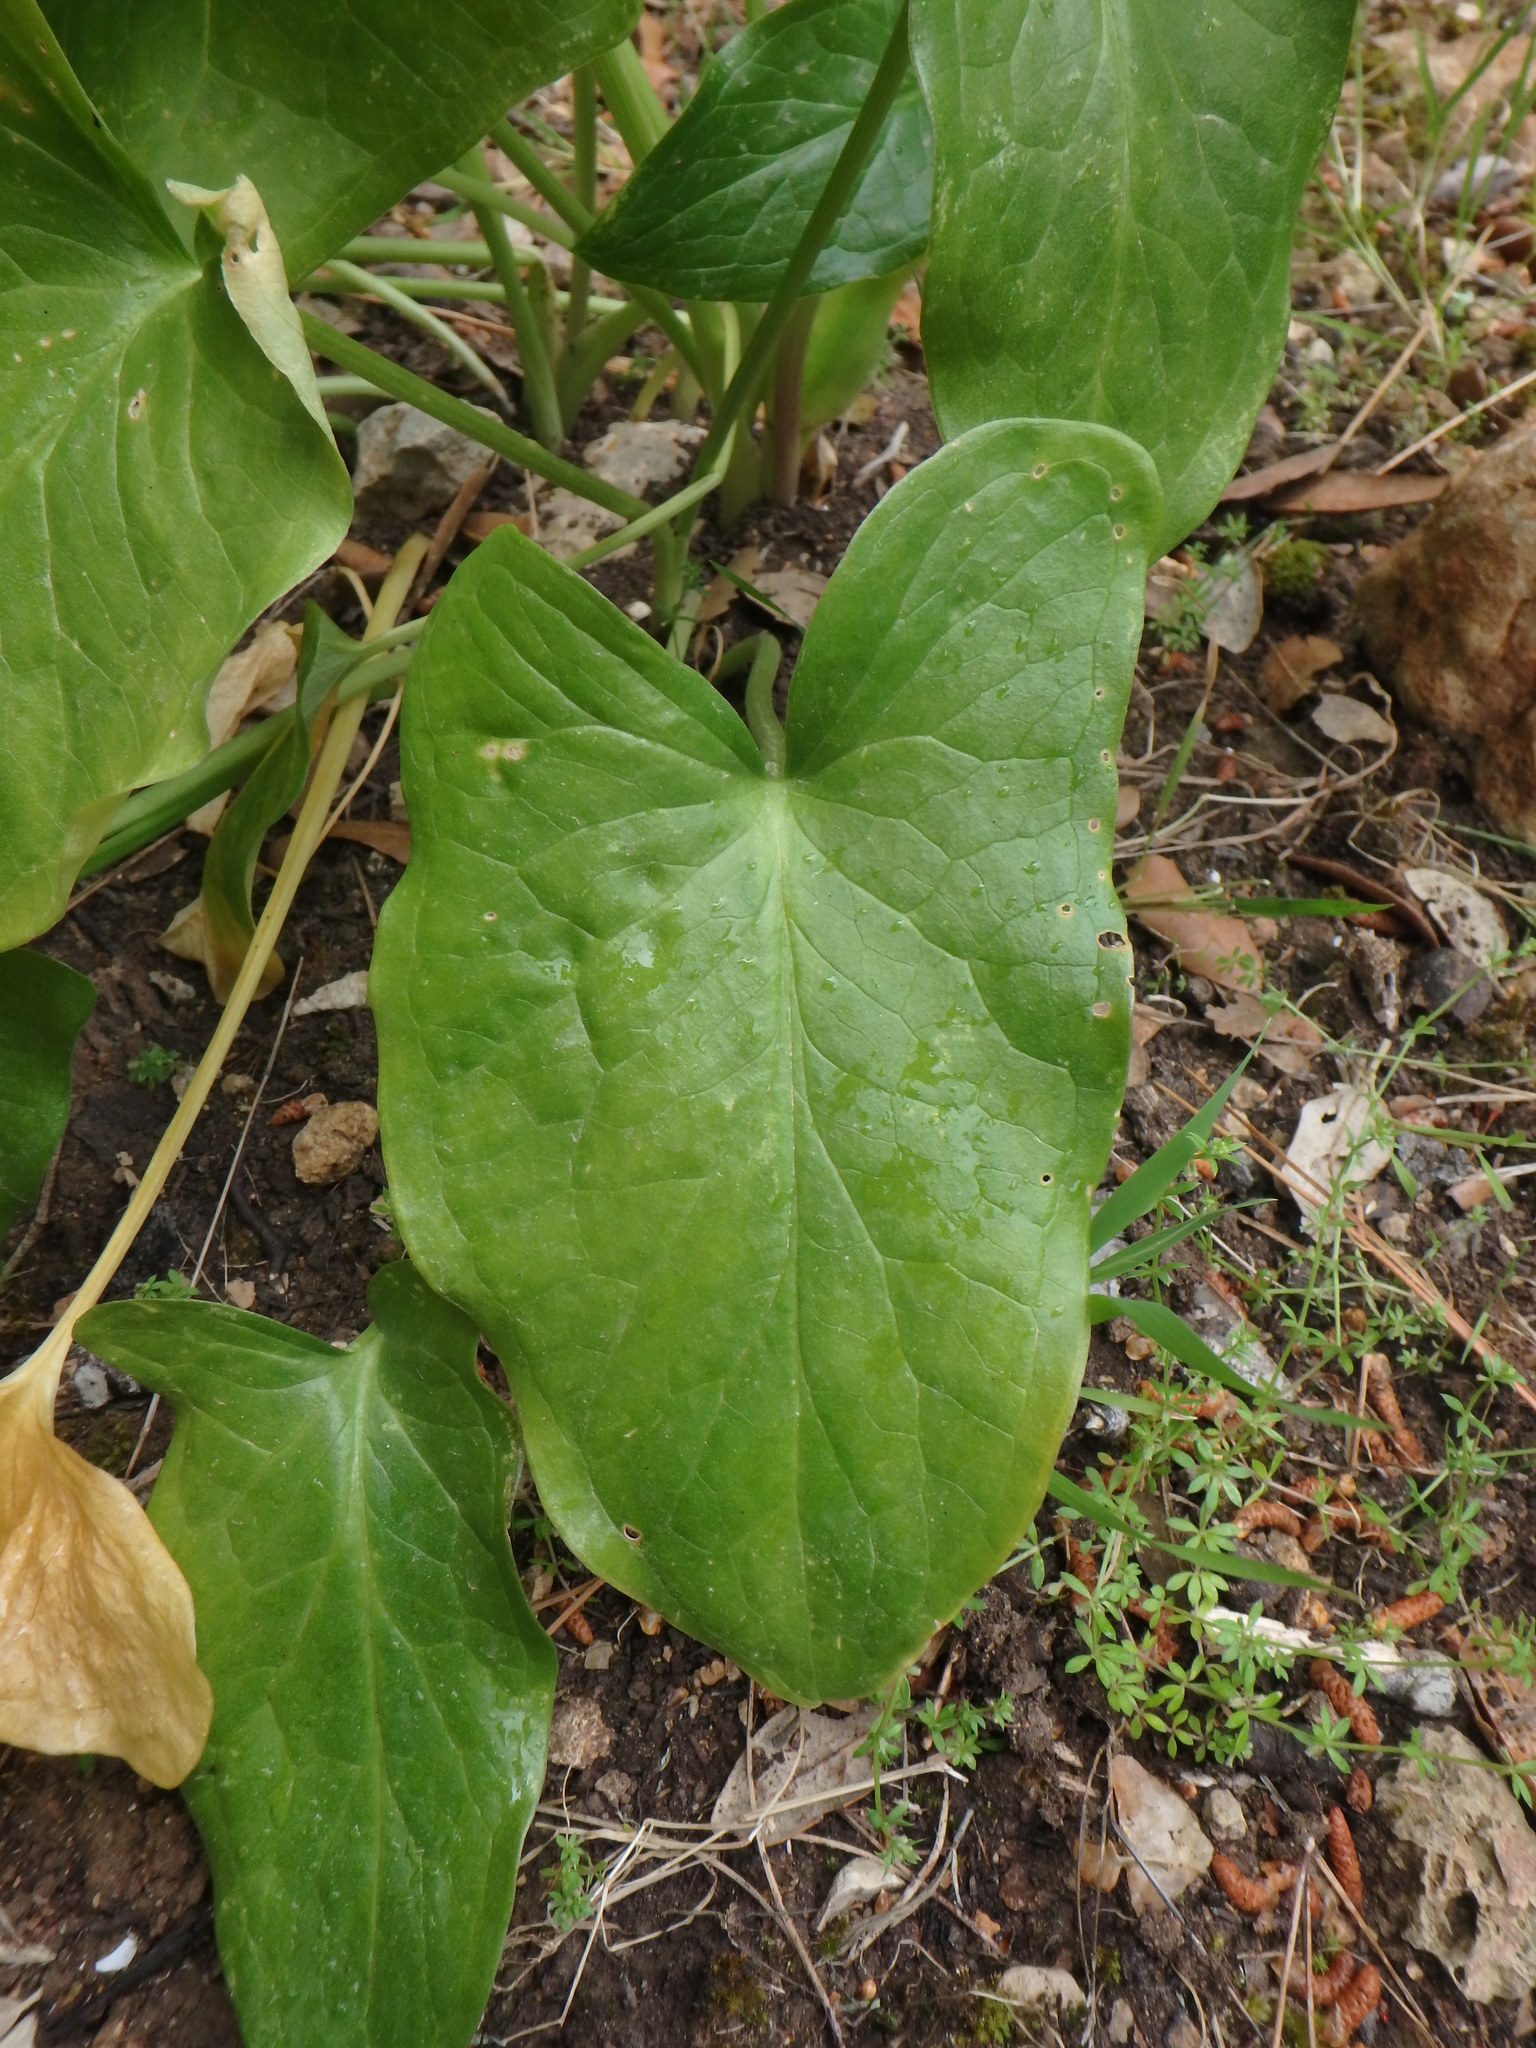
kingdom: Plantae
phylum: Tracheophyta
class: Liliopsida
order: Alismatales
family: Araceae
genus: Arum
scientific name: Arum italicum
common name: Italian lords-and-ladies
